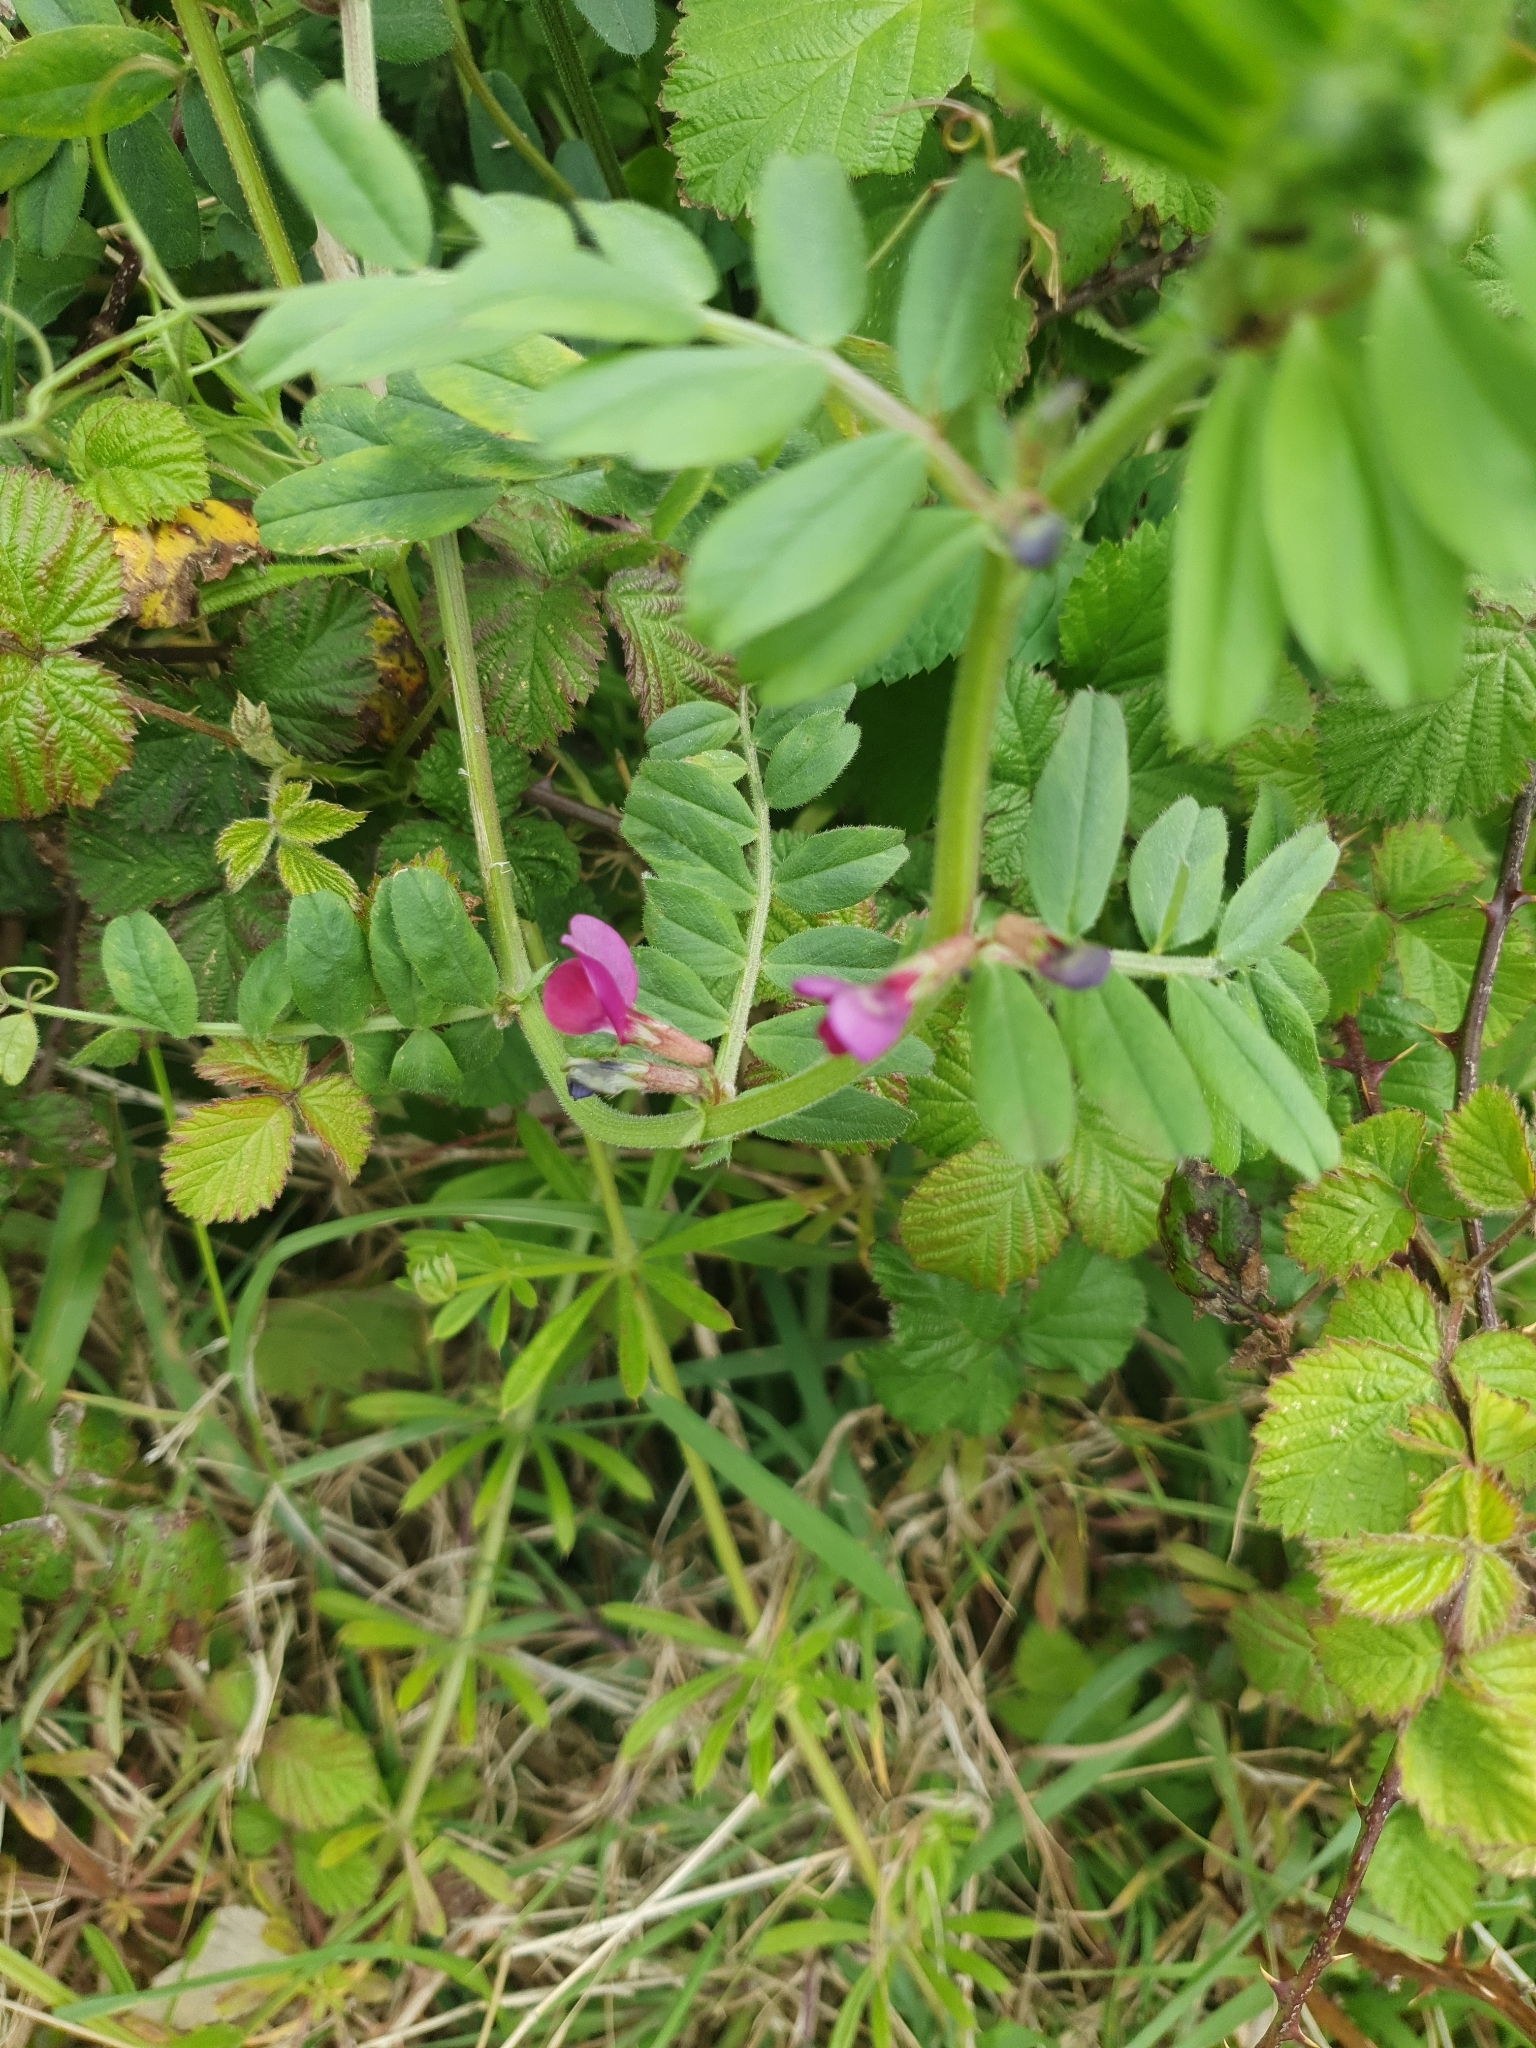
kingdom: Plantae
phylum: Tracheophyta
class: Magnoliopsida
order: Fabales
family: Fabaceae
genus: Vicia
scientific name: Vicia sativa
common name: Garden vetch
